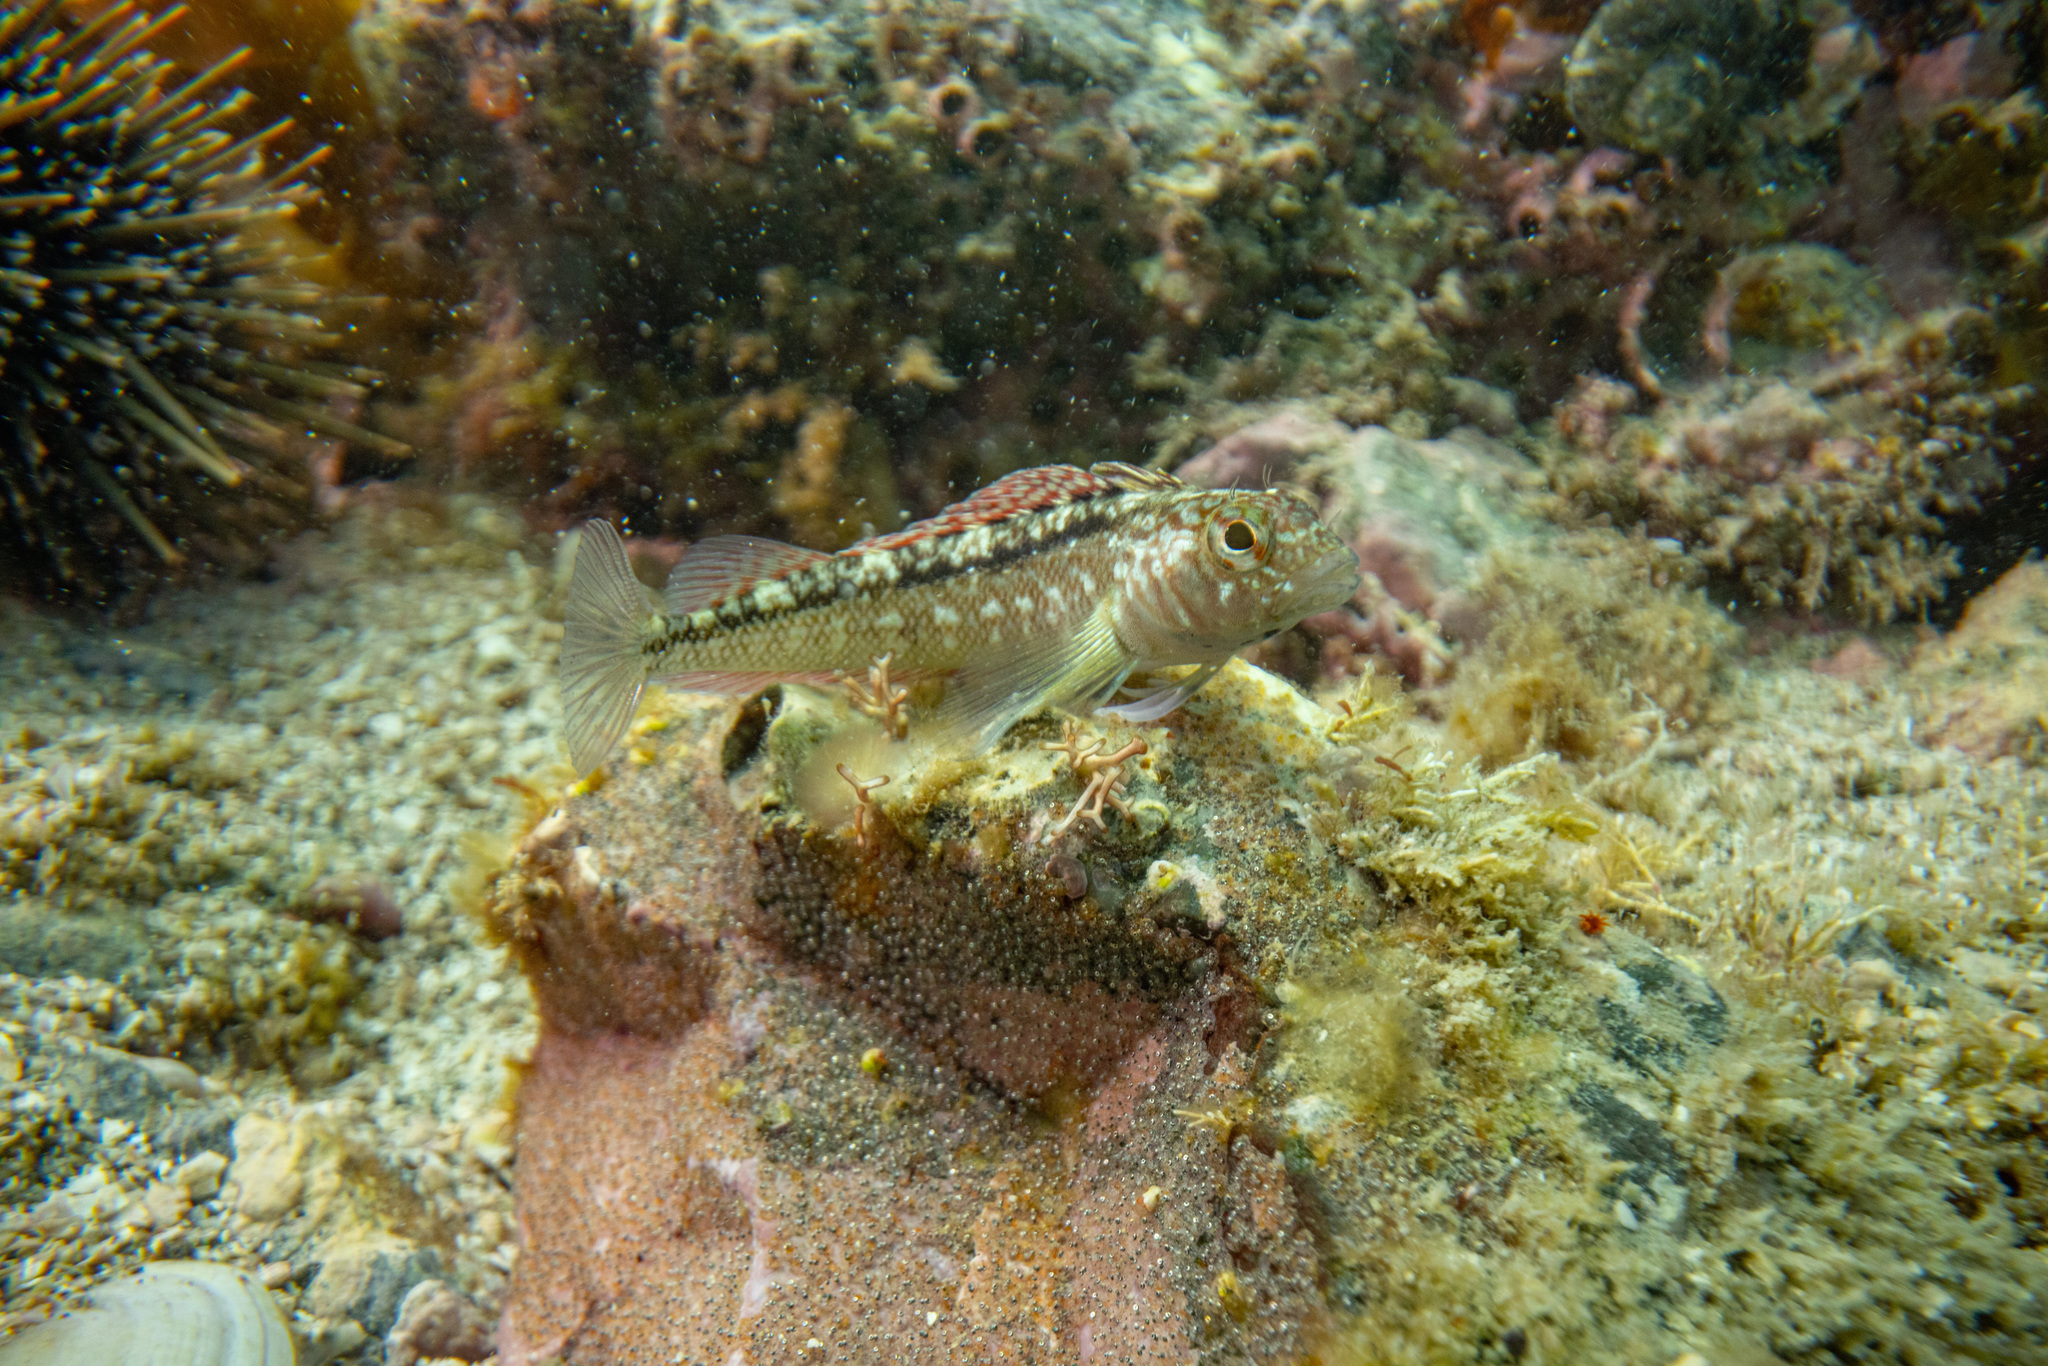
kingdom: Animalia
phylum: Chordata
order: Perciformes
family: Tripterygiidae
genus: Forsterygion
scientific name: Forsterygion lapillum
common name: Common triplefin
